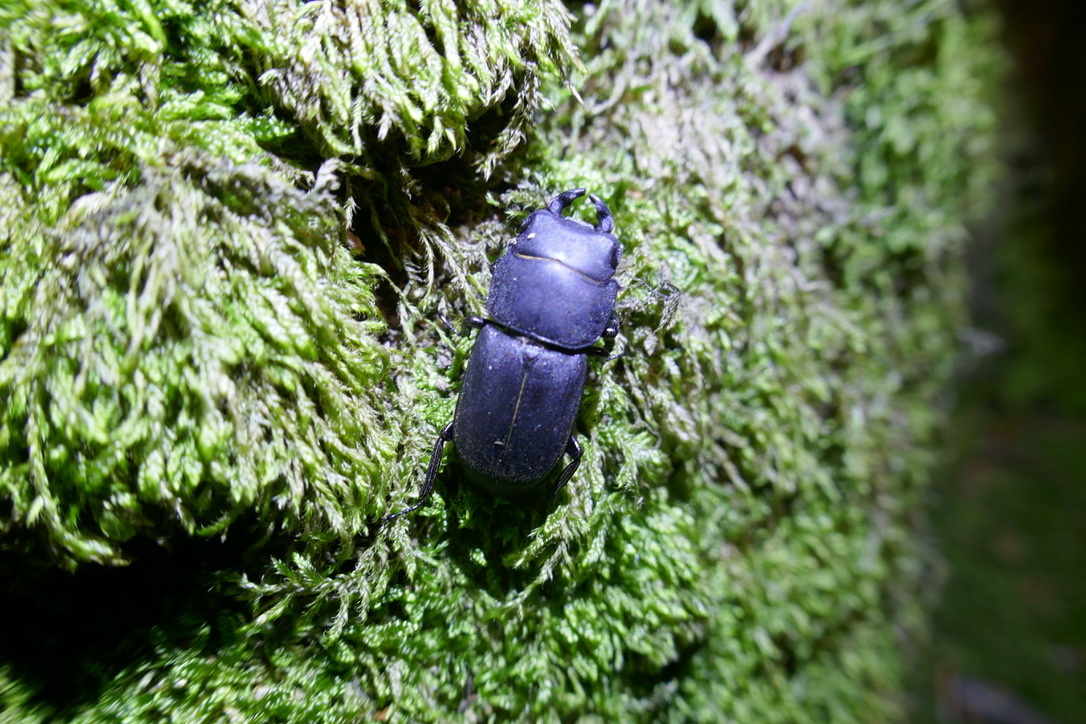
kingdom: Animalia
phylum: Arthropoda
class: Insecta
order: Coleoptera
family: Lucanidae
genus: Dorcus
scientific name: Dorcus parallelipipedus
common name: Lesser stag beetle
